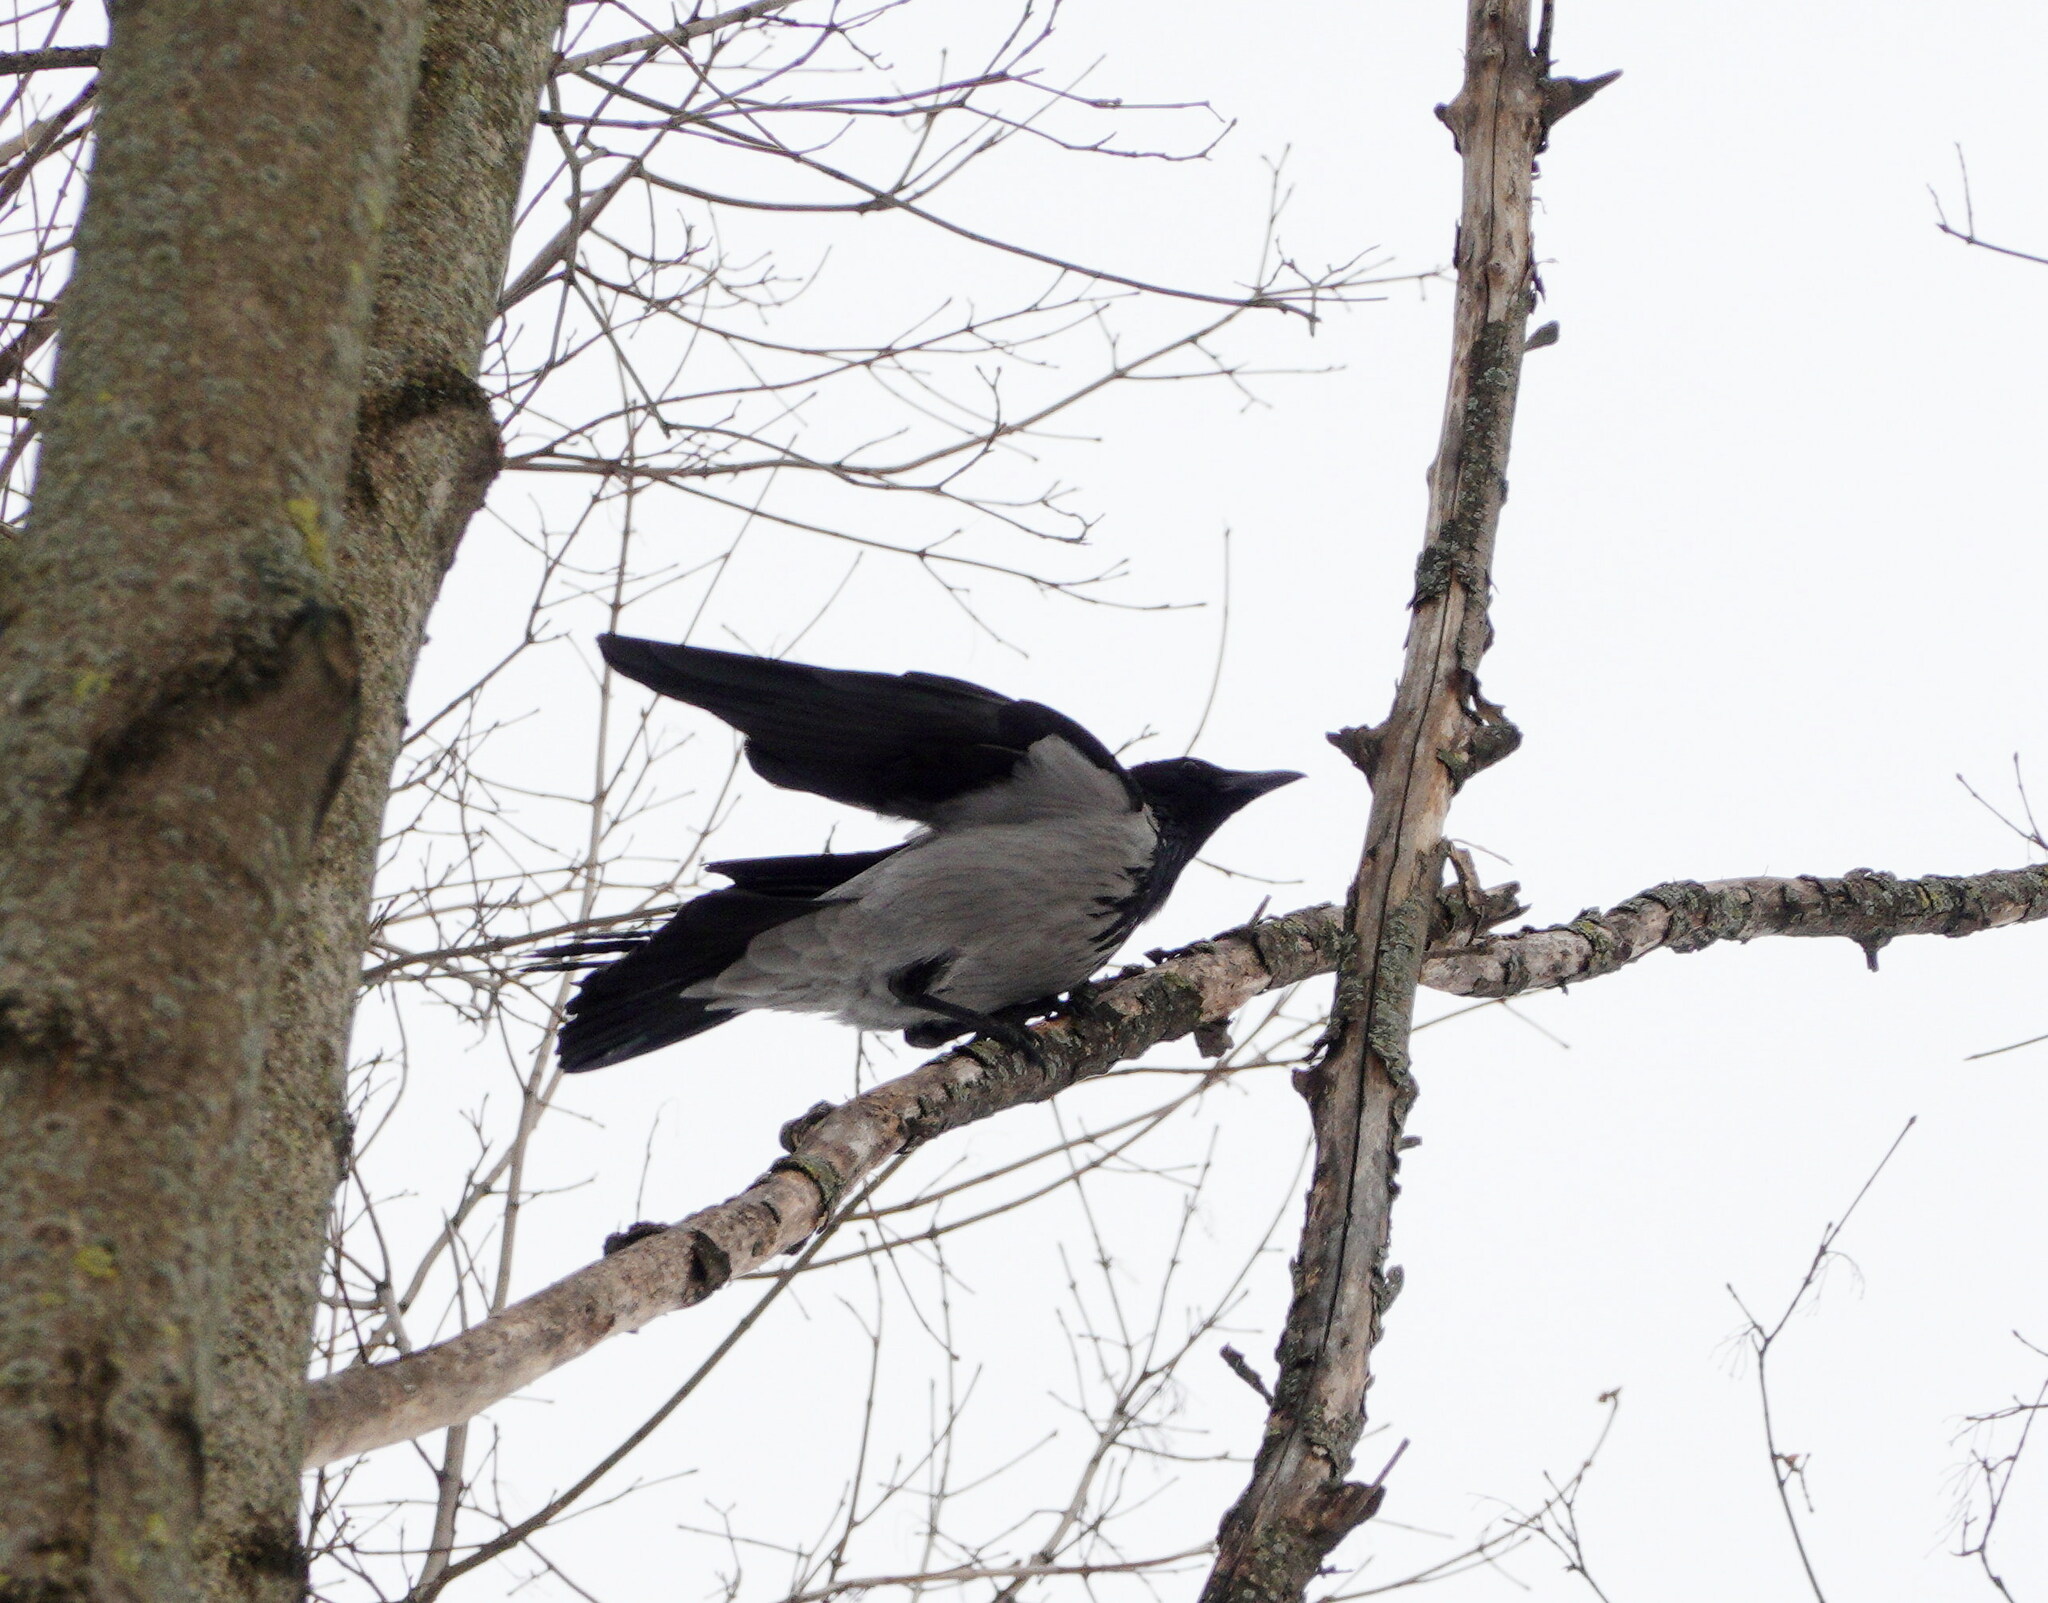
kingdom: Animalia
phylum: Chordata
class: Aves
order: Passeriformes
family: Corvidae
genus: Corvus
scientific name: Corvus cornix
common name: Hooded crow
